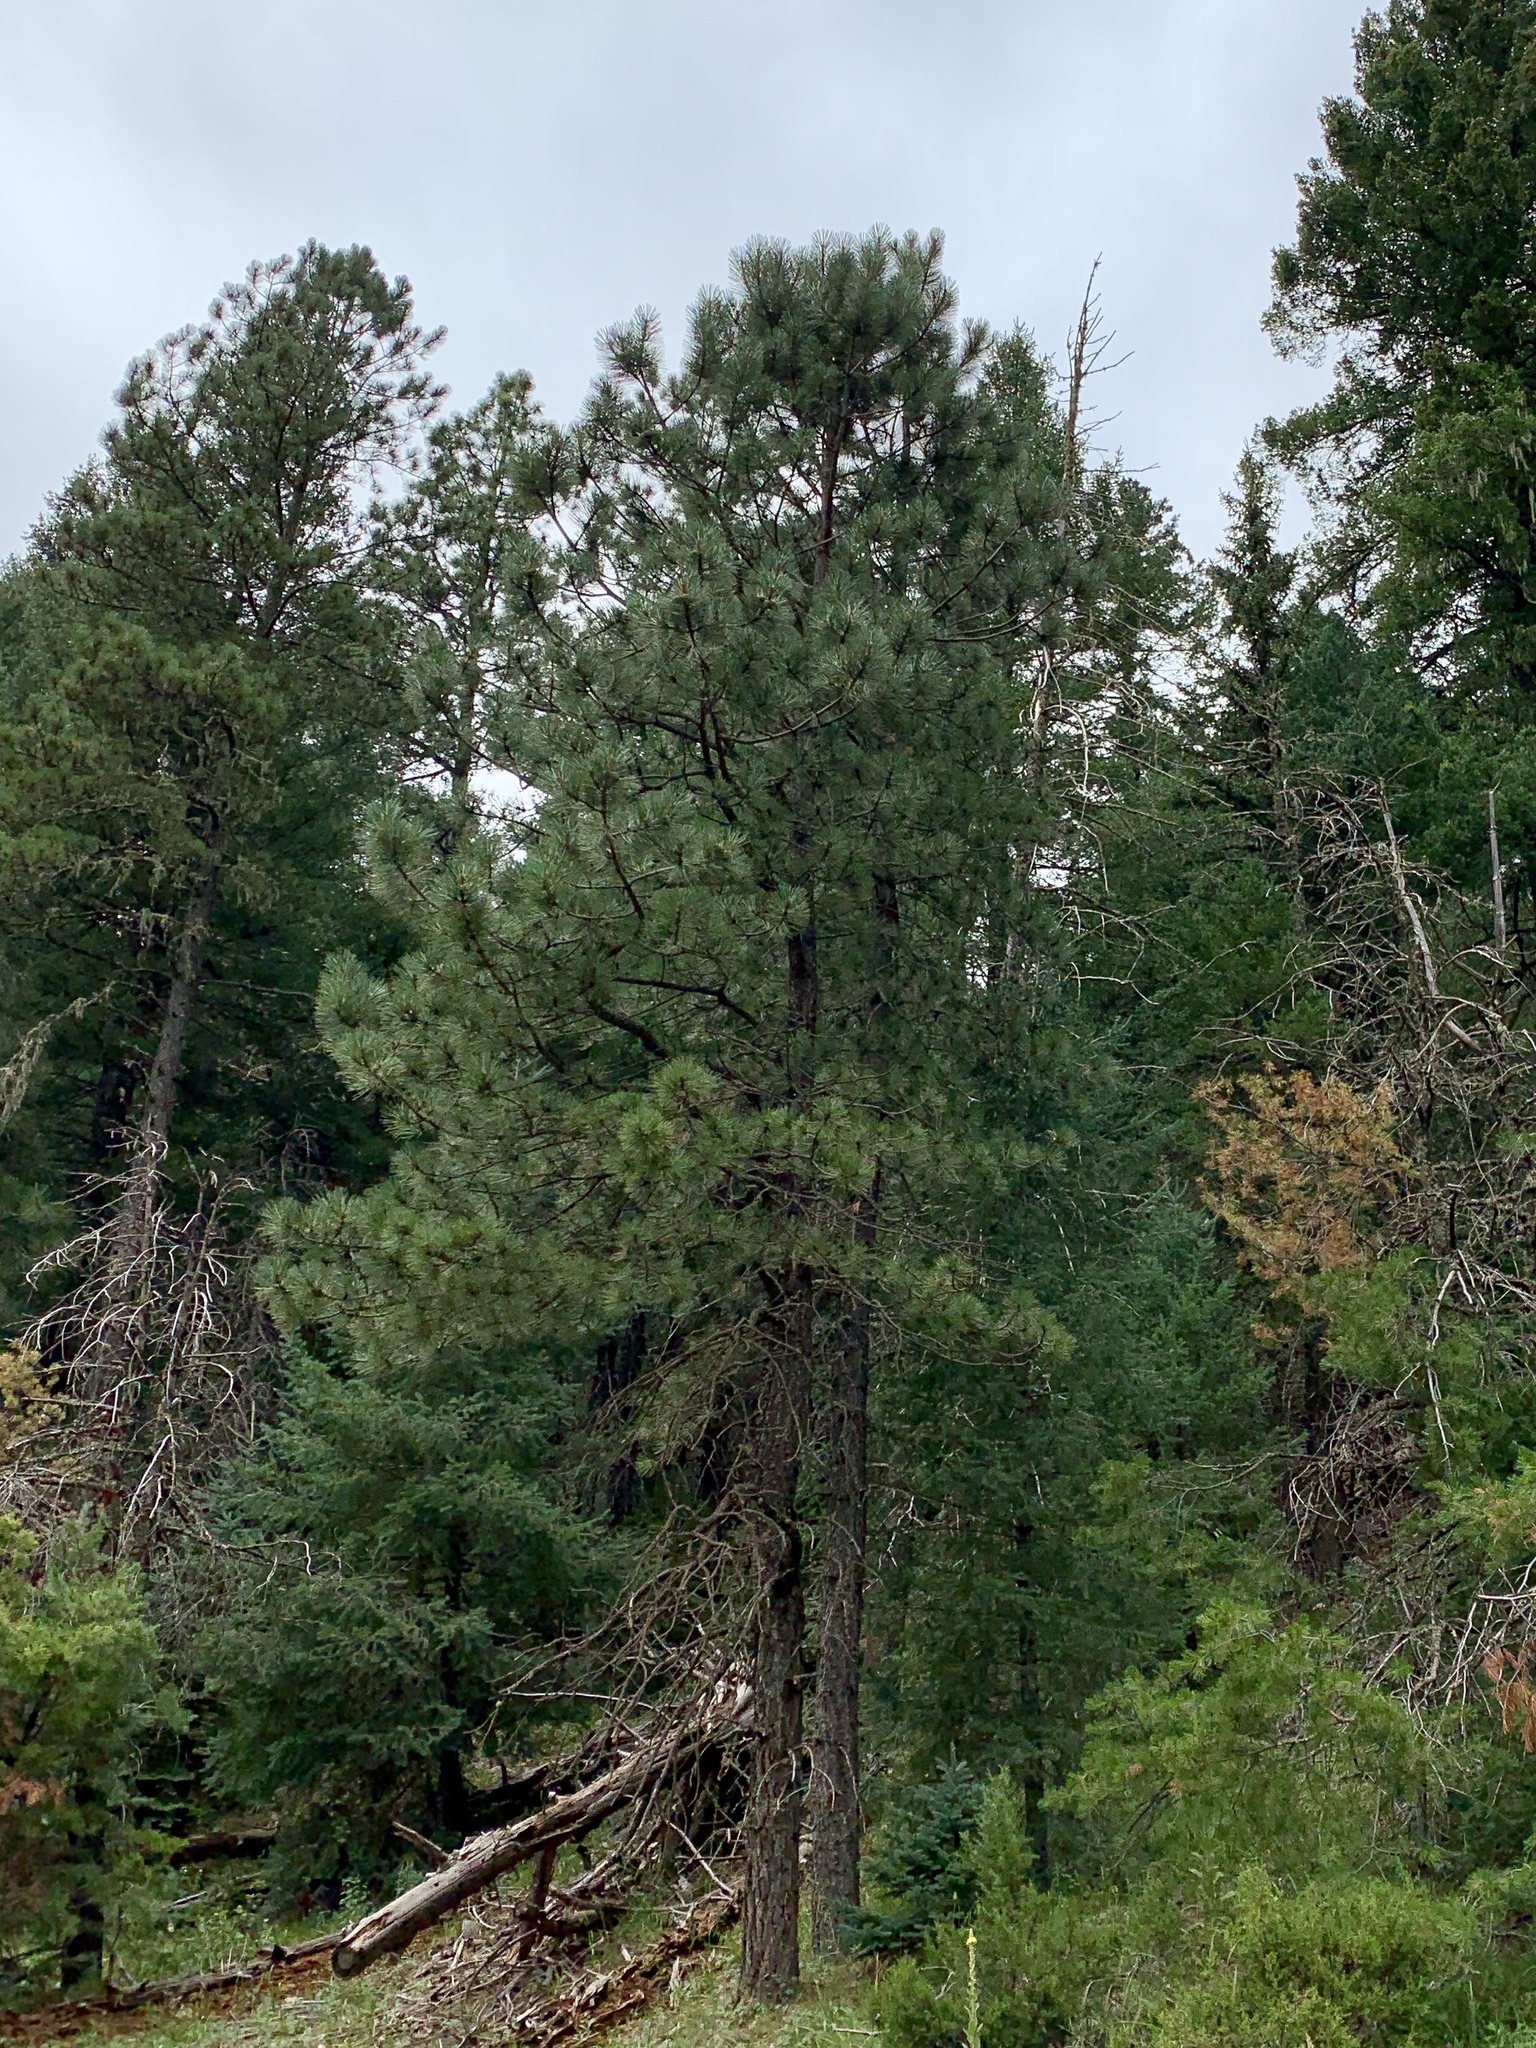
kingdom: Plantae
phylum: Tracheophyta
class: Pinopsida
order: Pinales
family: Pinaceae
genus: Pinus
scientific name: Pinus ponderosa
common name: Western yellow-pine
